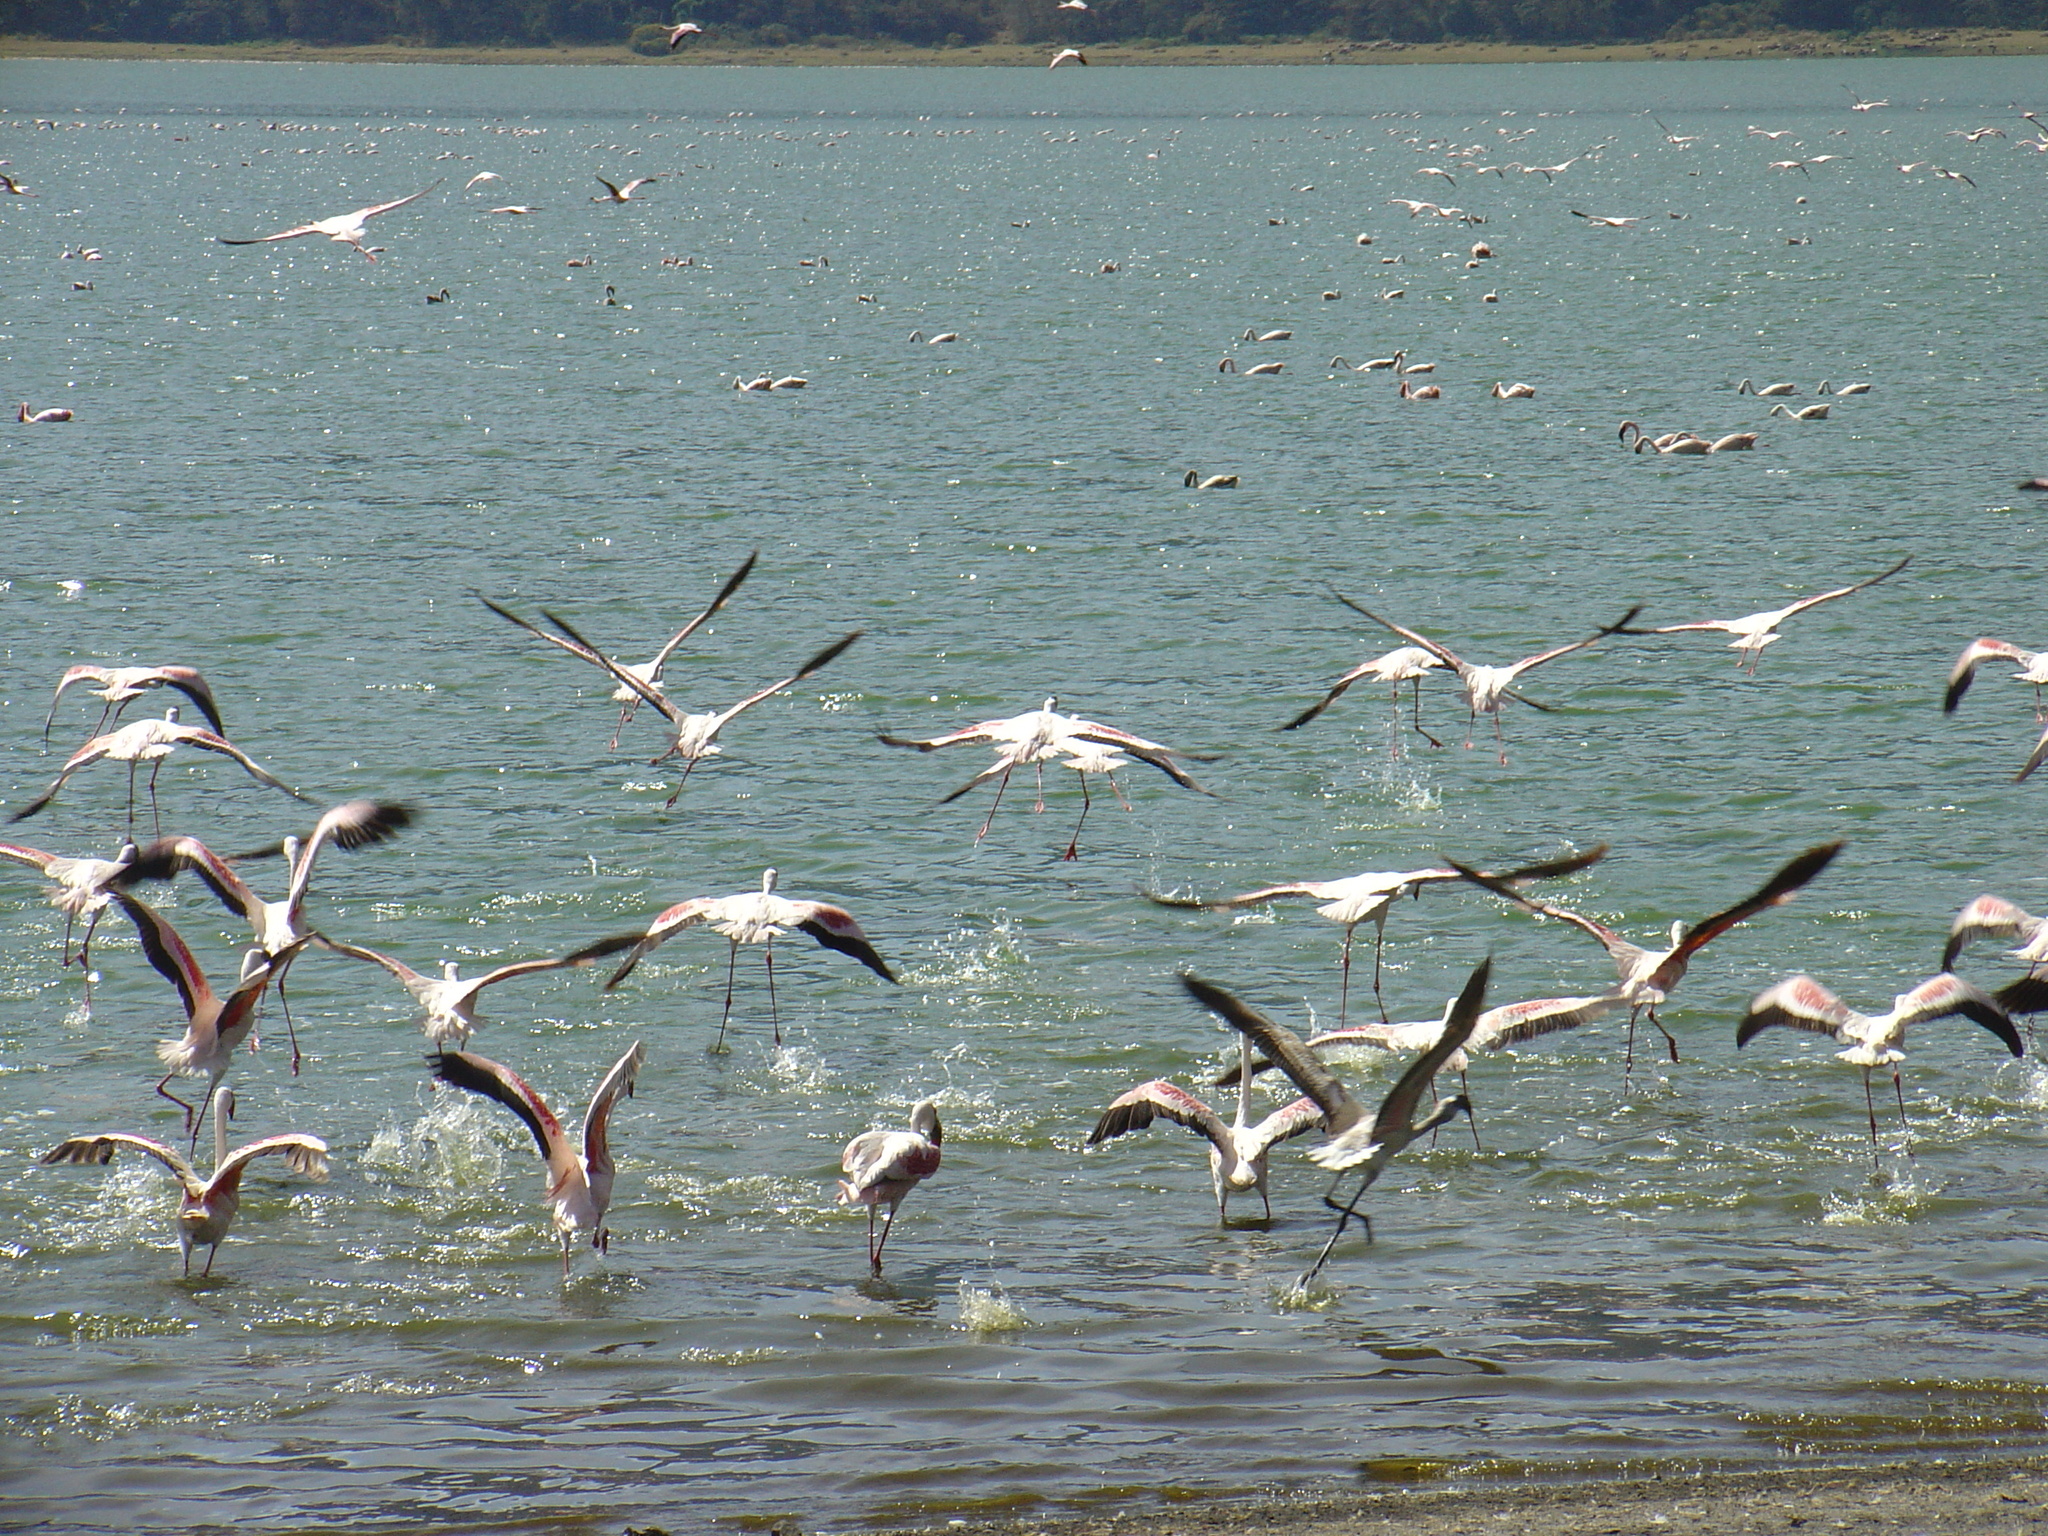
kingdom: Animalia
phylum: Chordata
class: Aves
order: Phoenicopteriformes
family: Phoenicopteridae
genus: Phoeniconaias
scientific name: Phoeniconaias minor
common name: Lesser flamingo
